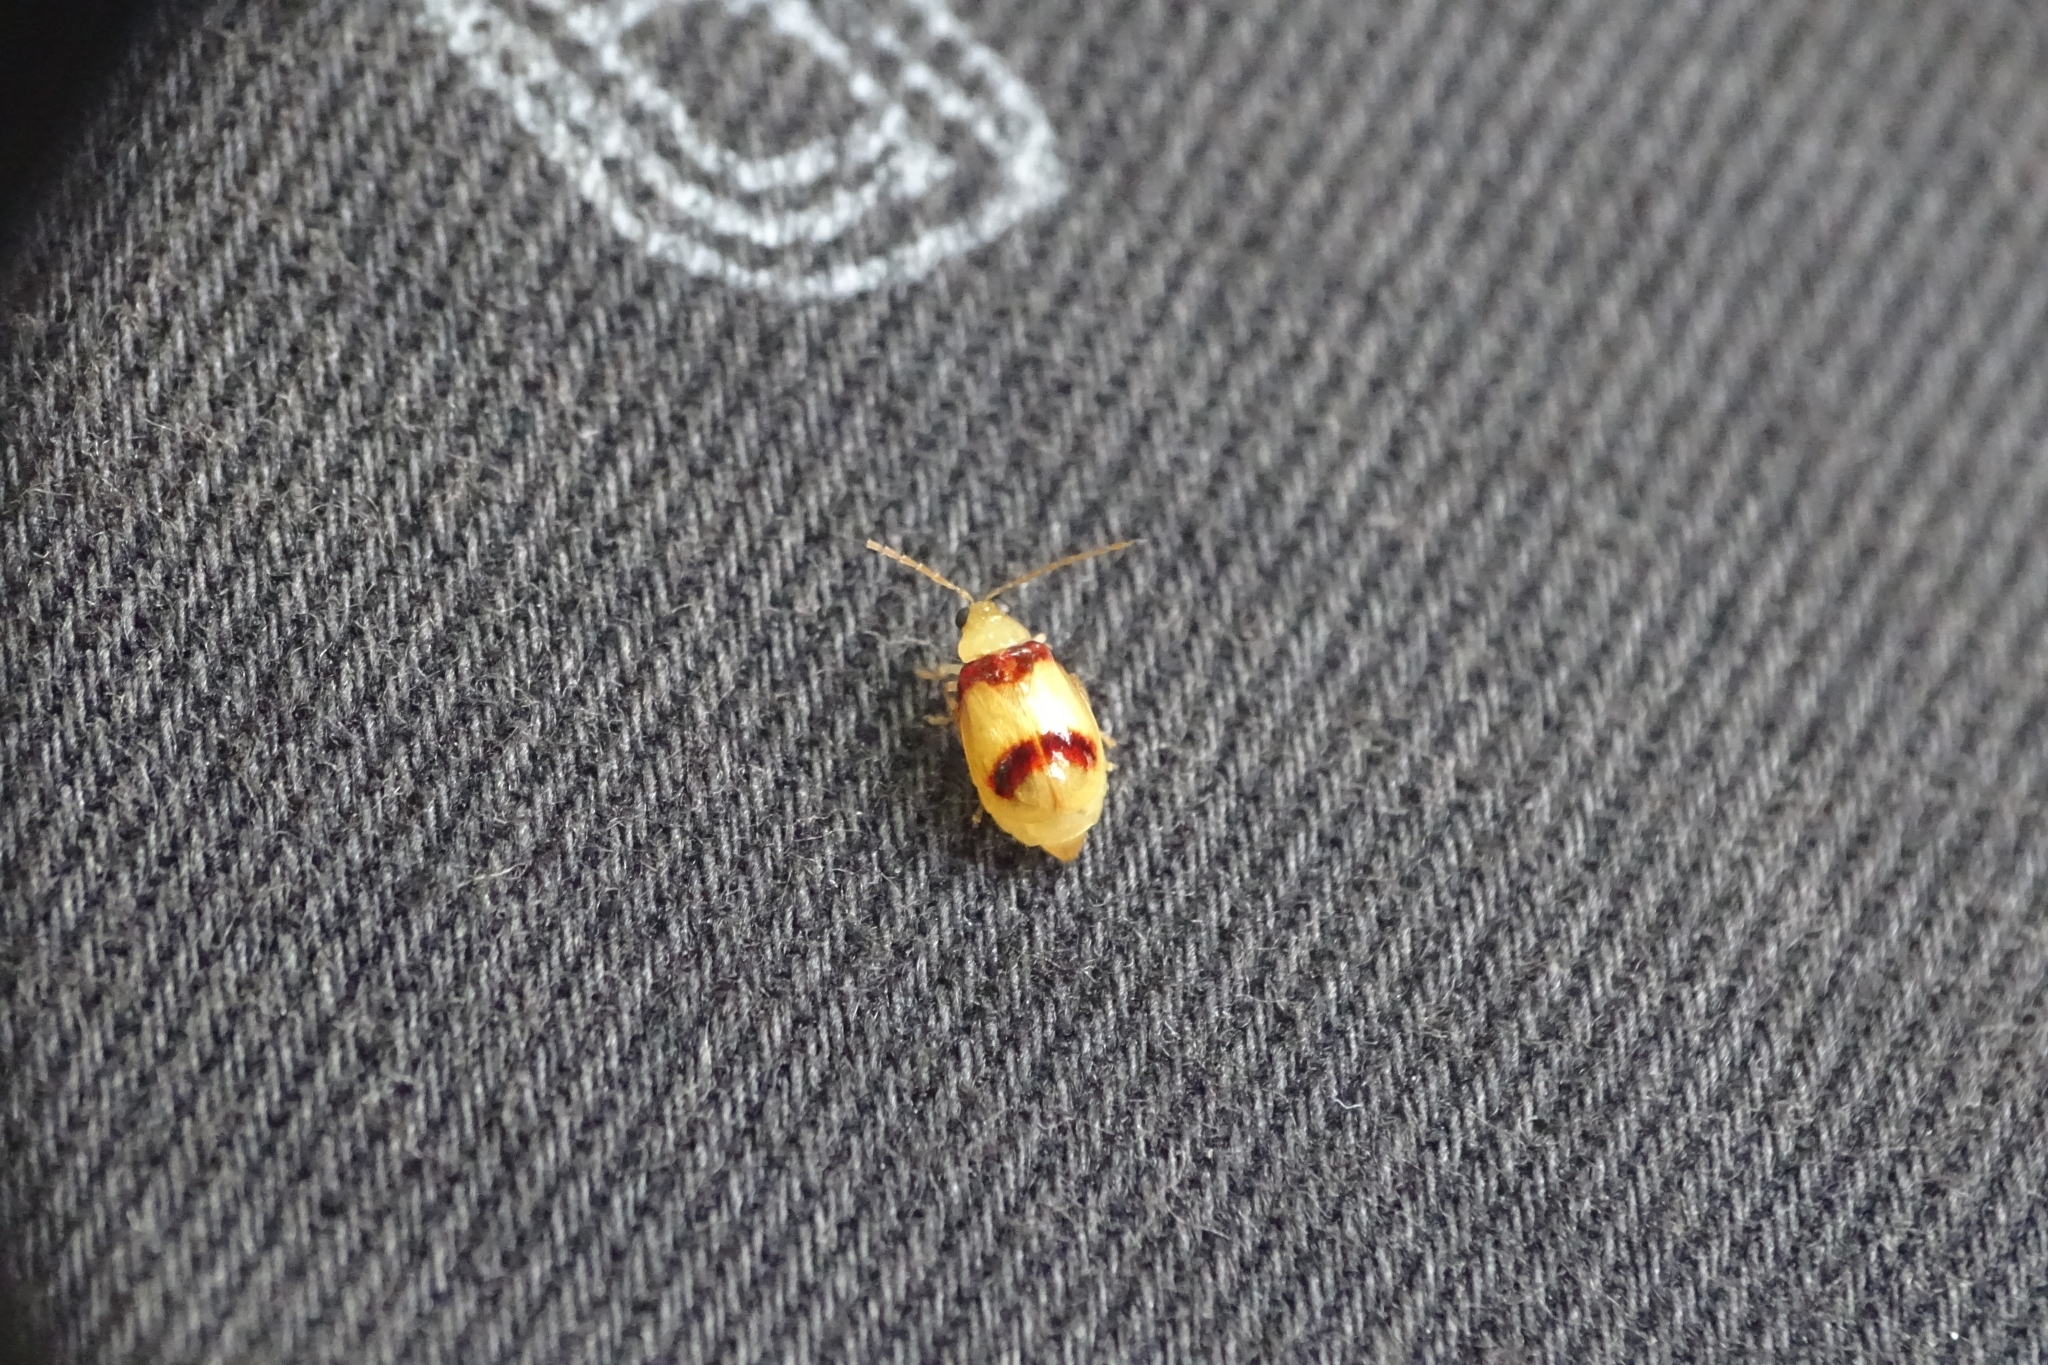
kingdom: Animalia
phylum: Arthropoda
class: Insecta
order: Coleoptera
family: Chrysomelidae
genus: Monolepta
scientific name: Monolepta
